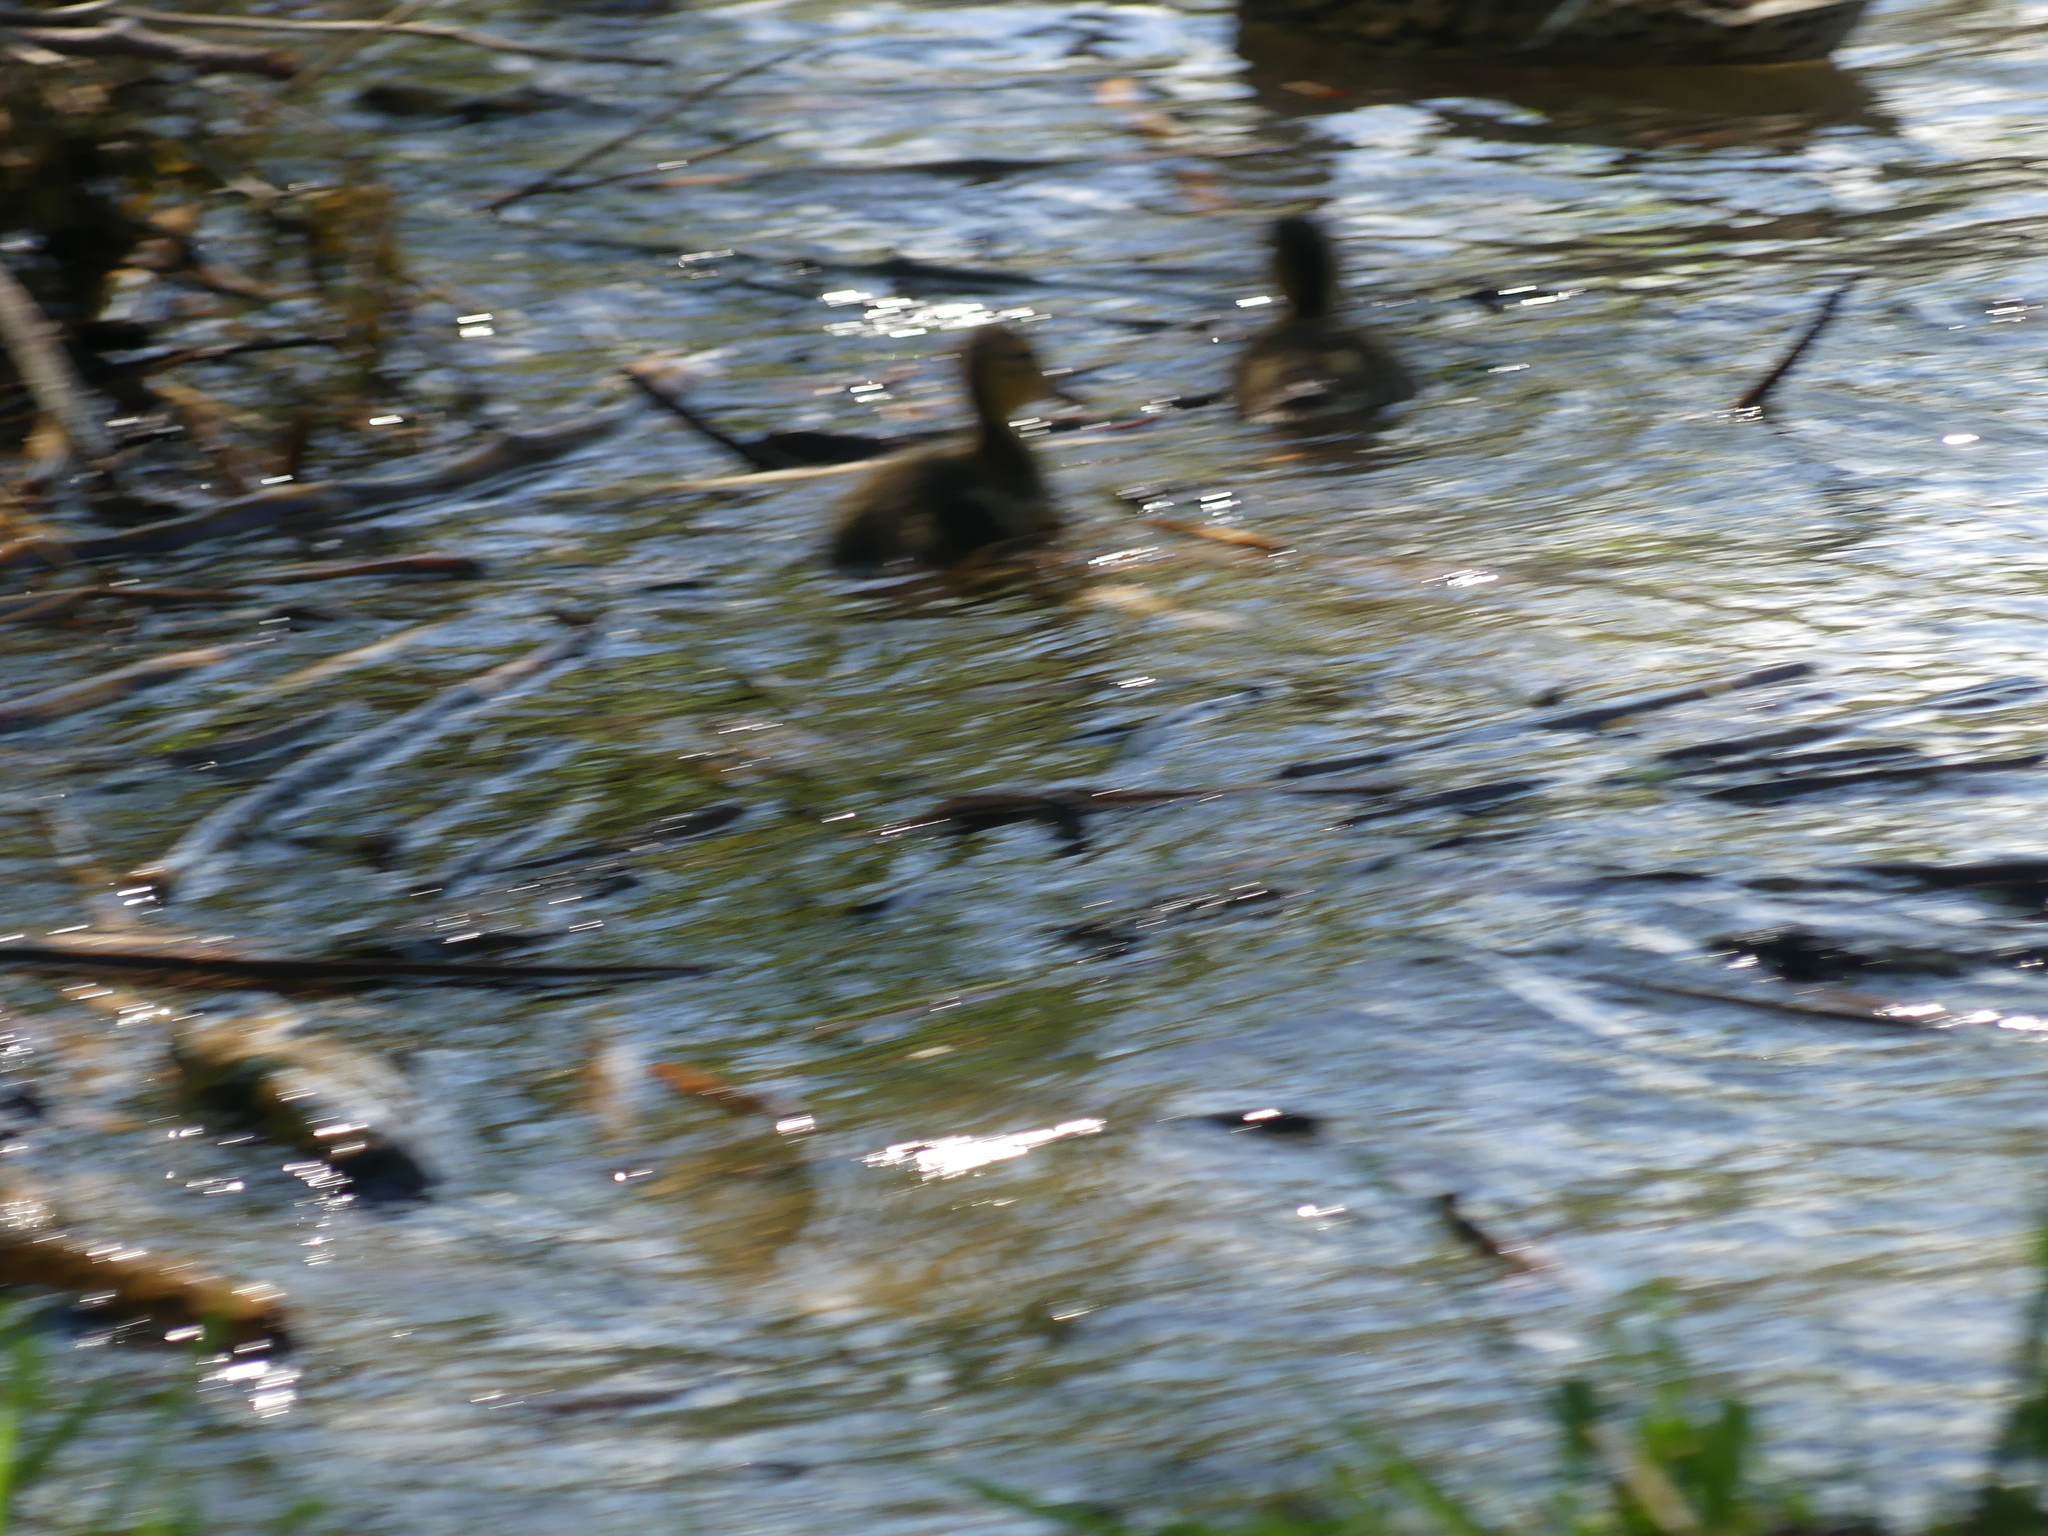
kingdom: Animalia
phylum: Chordata
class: Aves
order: Anseriformes
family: Anatidae
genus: Anas
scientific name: Anas platyrhynchos
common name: Mallard
